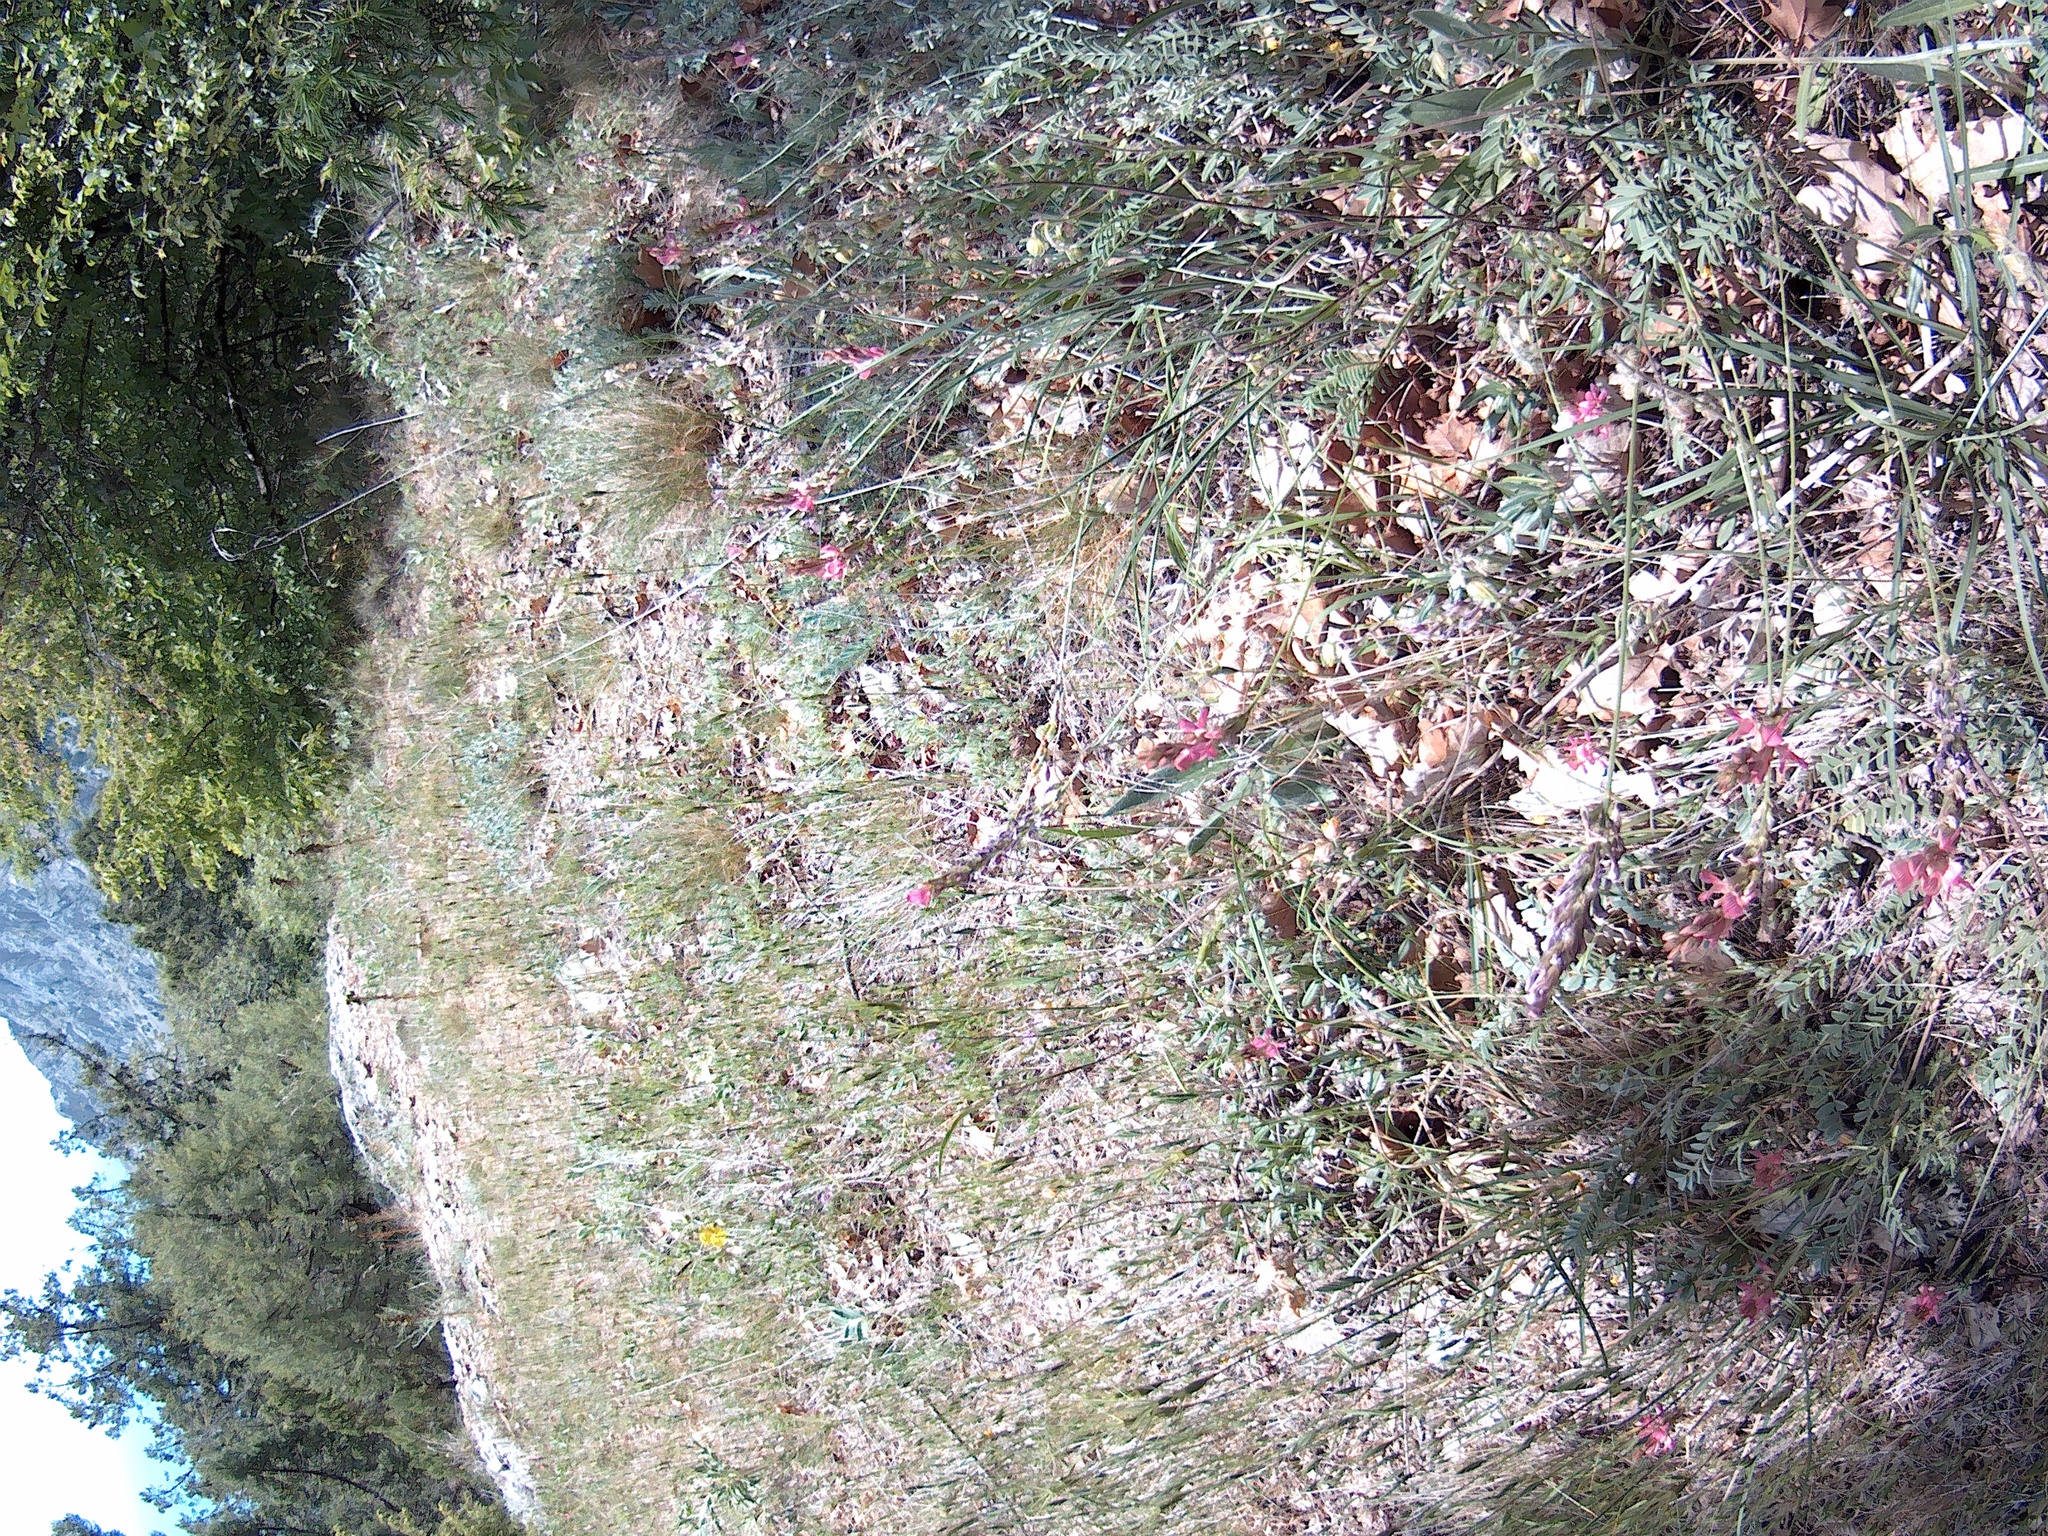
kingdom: Plantae
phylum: Tracheophyta
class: Magnoliopsida
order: Fabales
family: Fabaceae
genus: Onobrychis
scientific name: Onobrychis arenaria
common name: Sand esparcet
